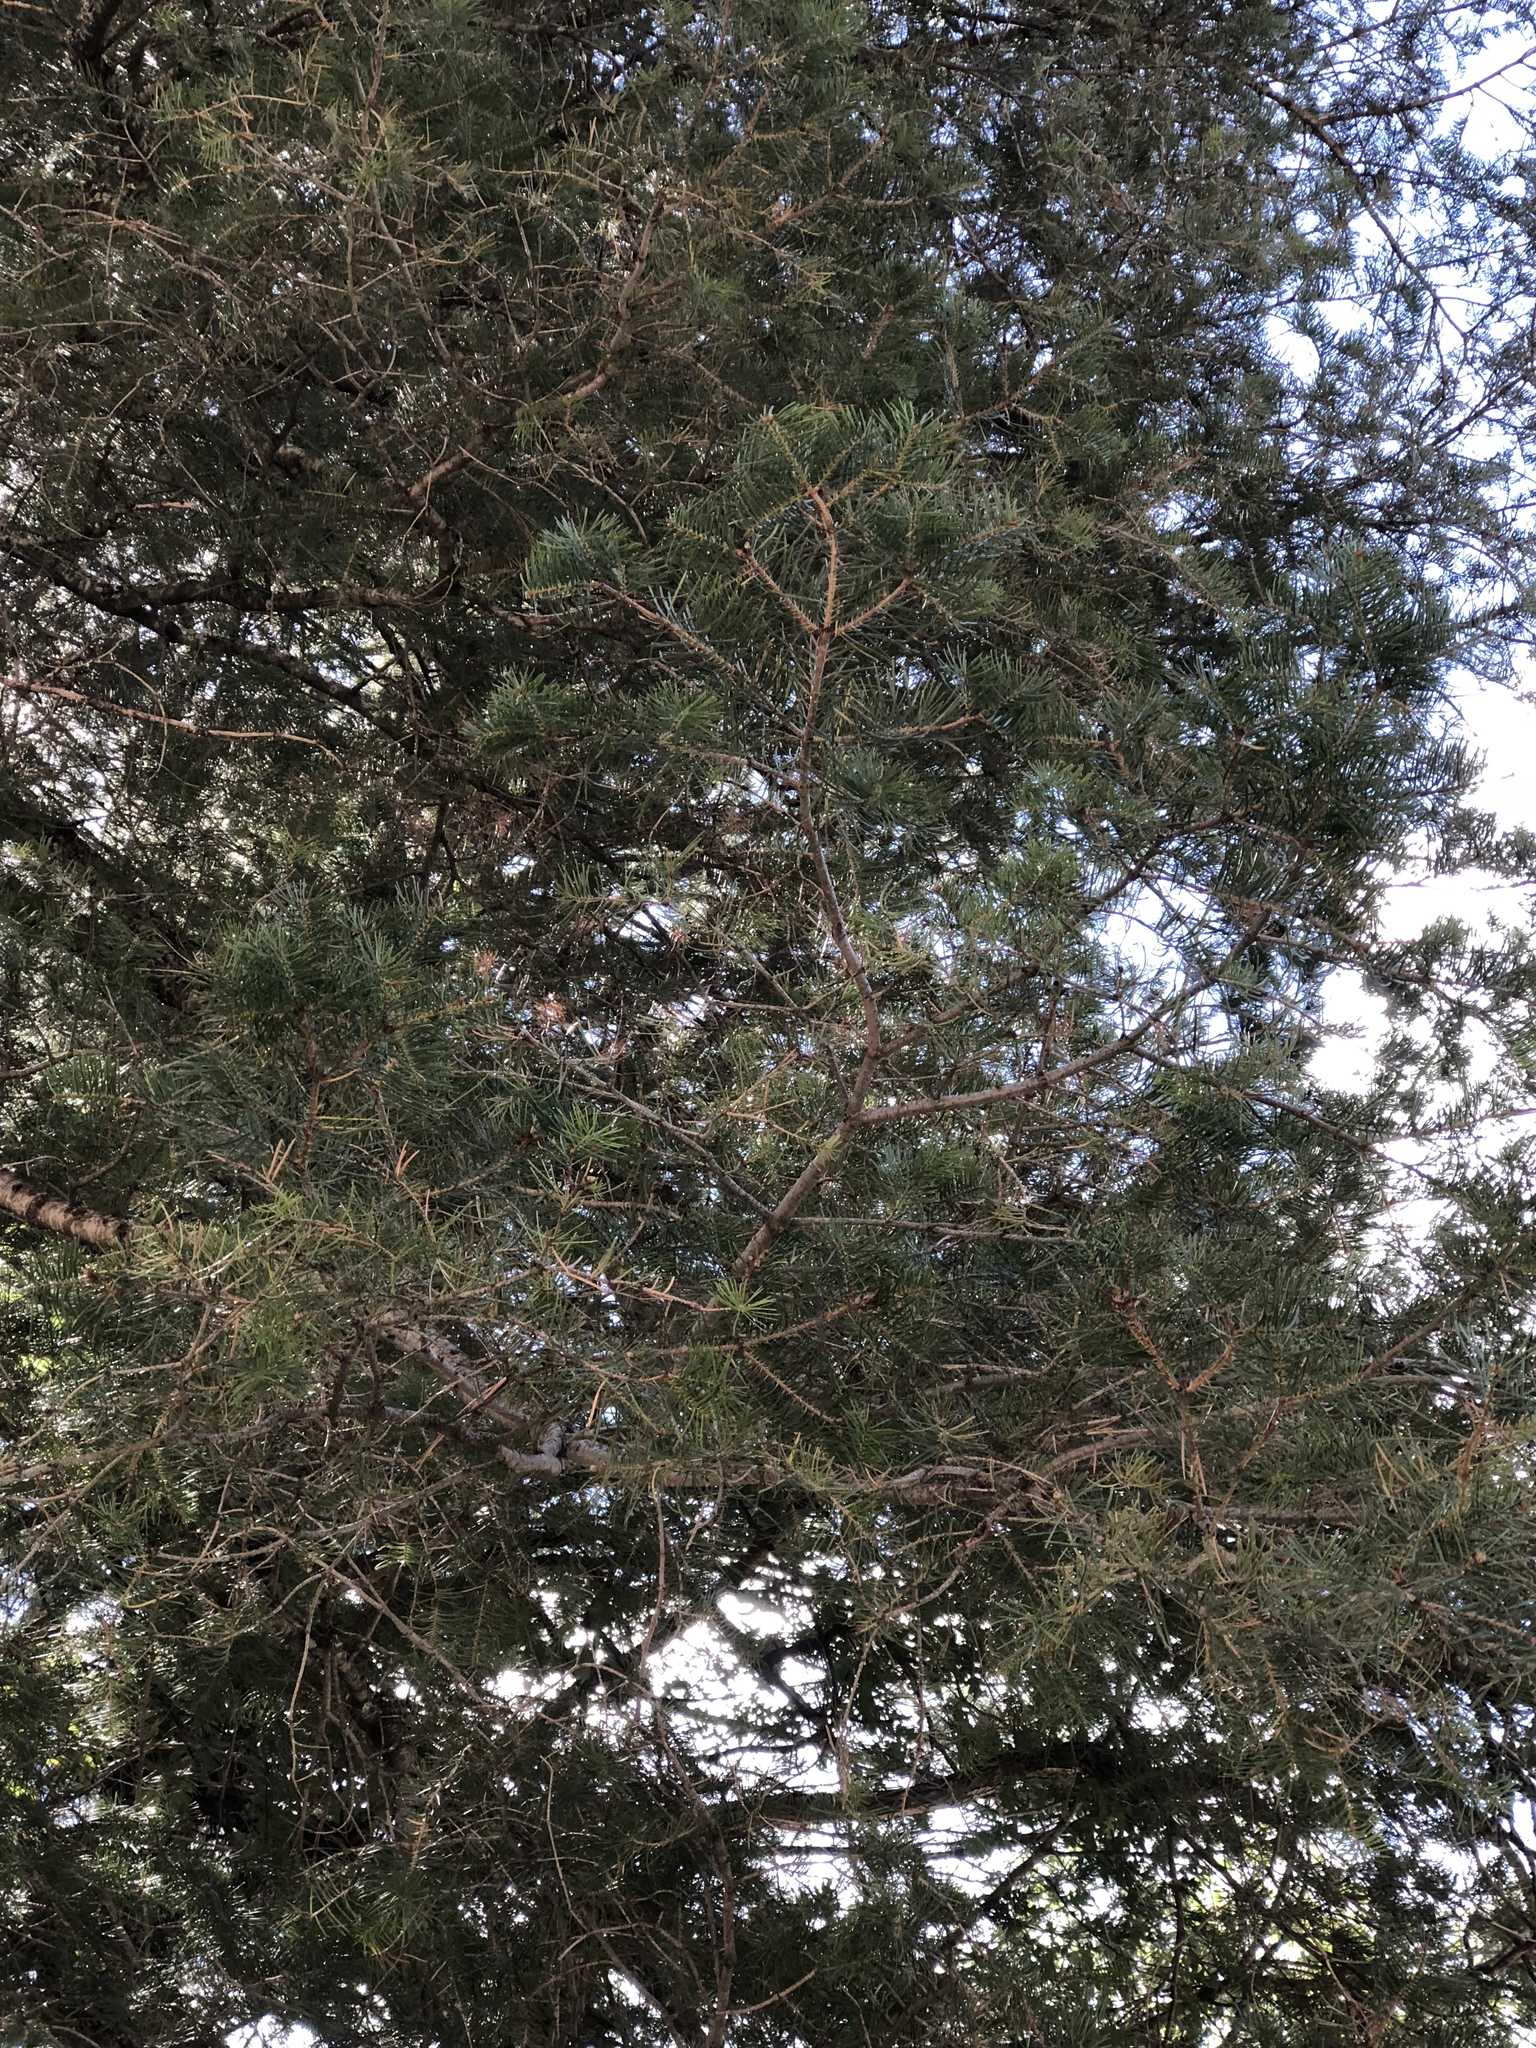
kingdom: Plantae
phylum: Tracheophyta
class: Pinopsida
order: Pinales
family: Pinaceae
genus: Abies
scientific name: Abies concolor
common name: Colorado fir
